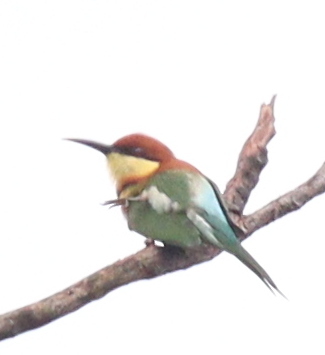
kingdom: Animalia
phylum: Chordata
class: Aves
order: Coraciiformes
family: Meropidae
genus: Merops
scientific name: Merops leschenaulti
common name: Chestnut-headed bee-eater
